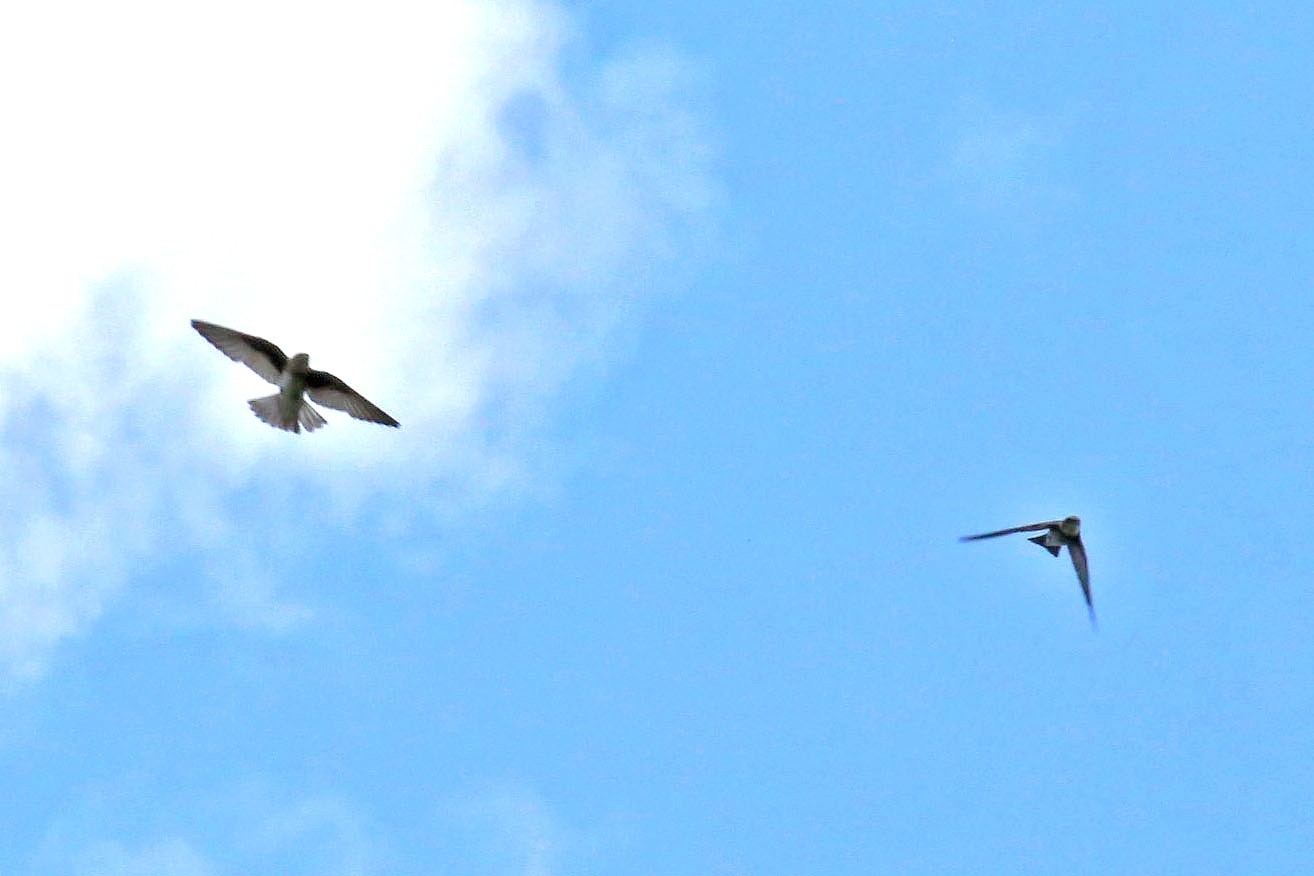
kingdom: Animalia
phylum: Chordata
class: Aves
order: Passeriformes
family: Hirundinidae
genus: Riparia
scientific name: Riparia riparia
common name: Sand martin
